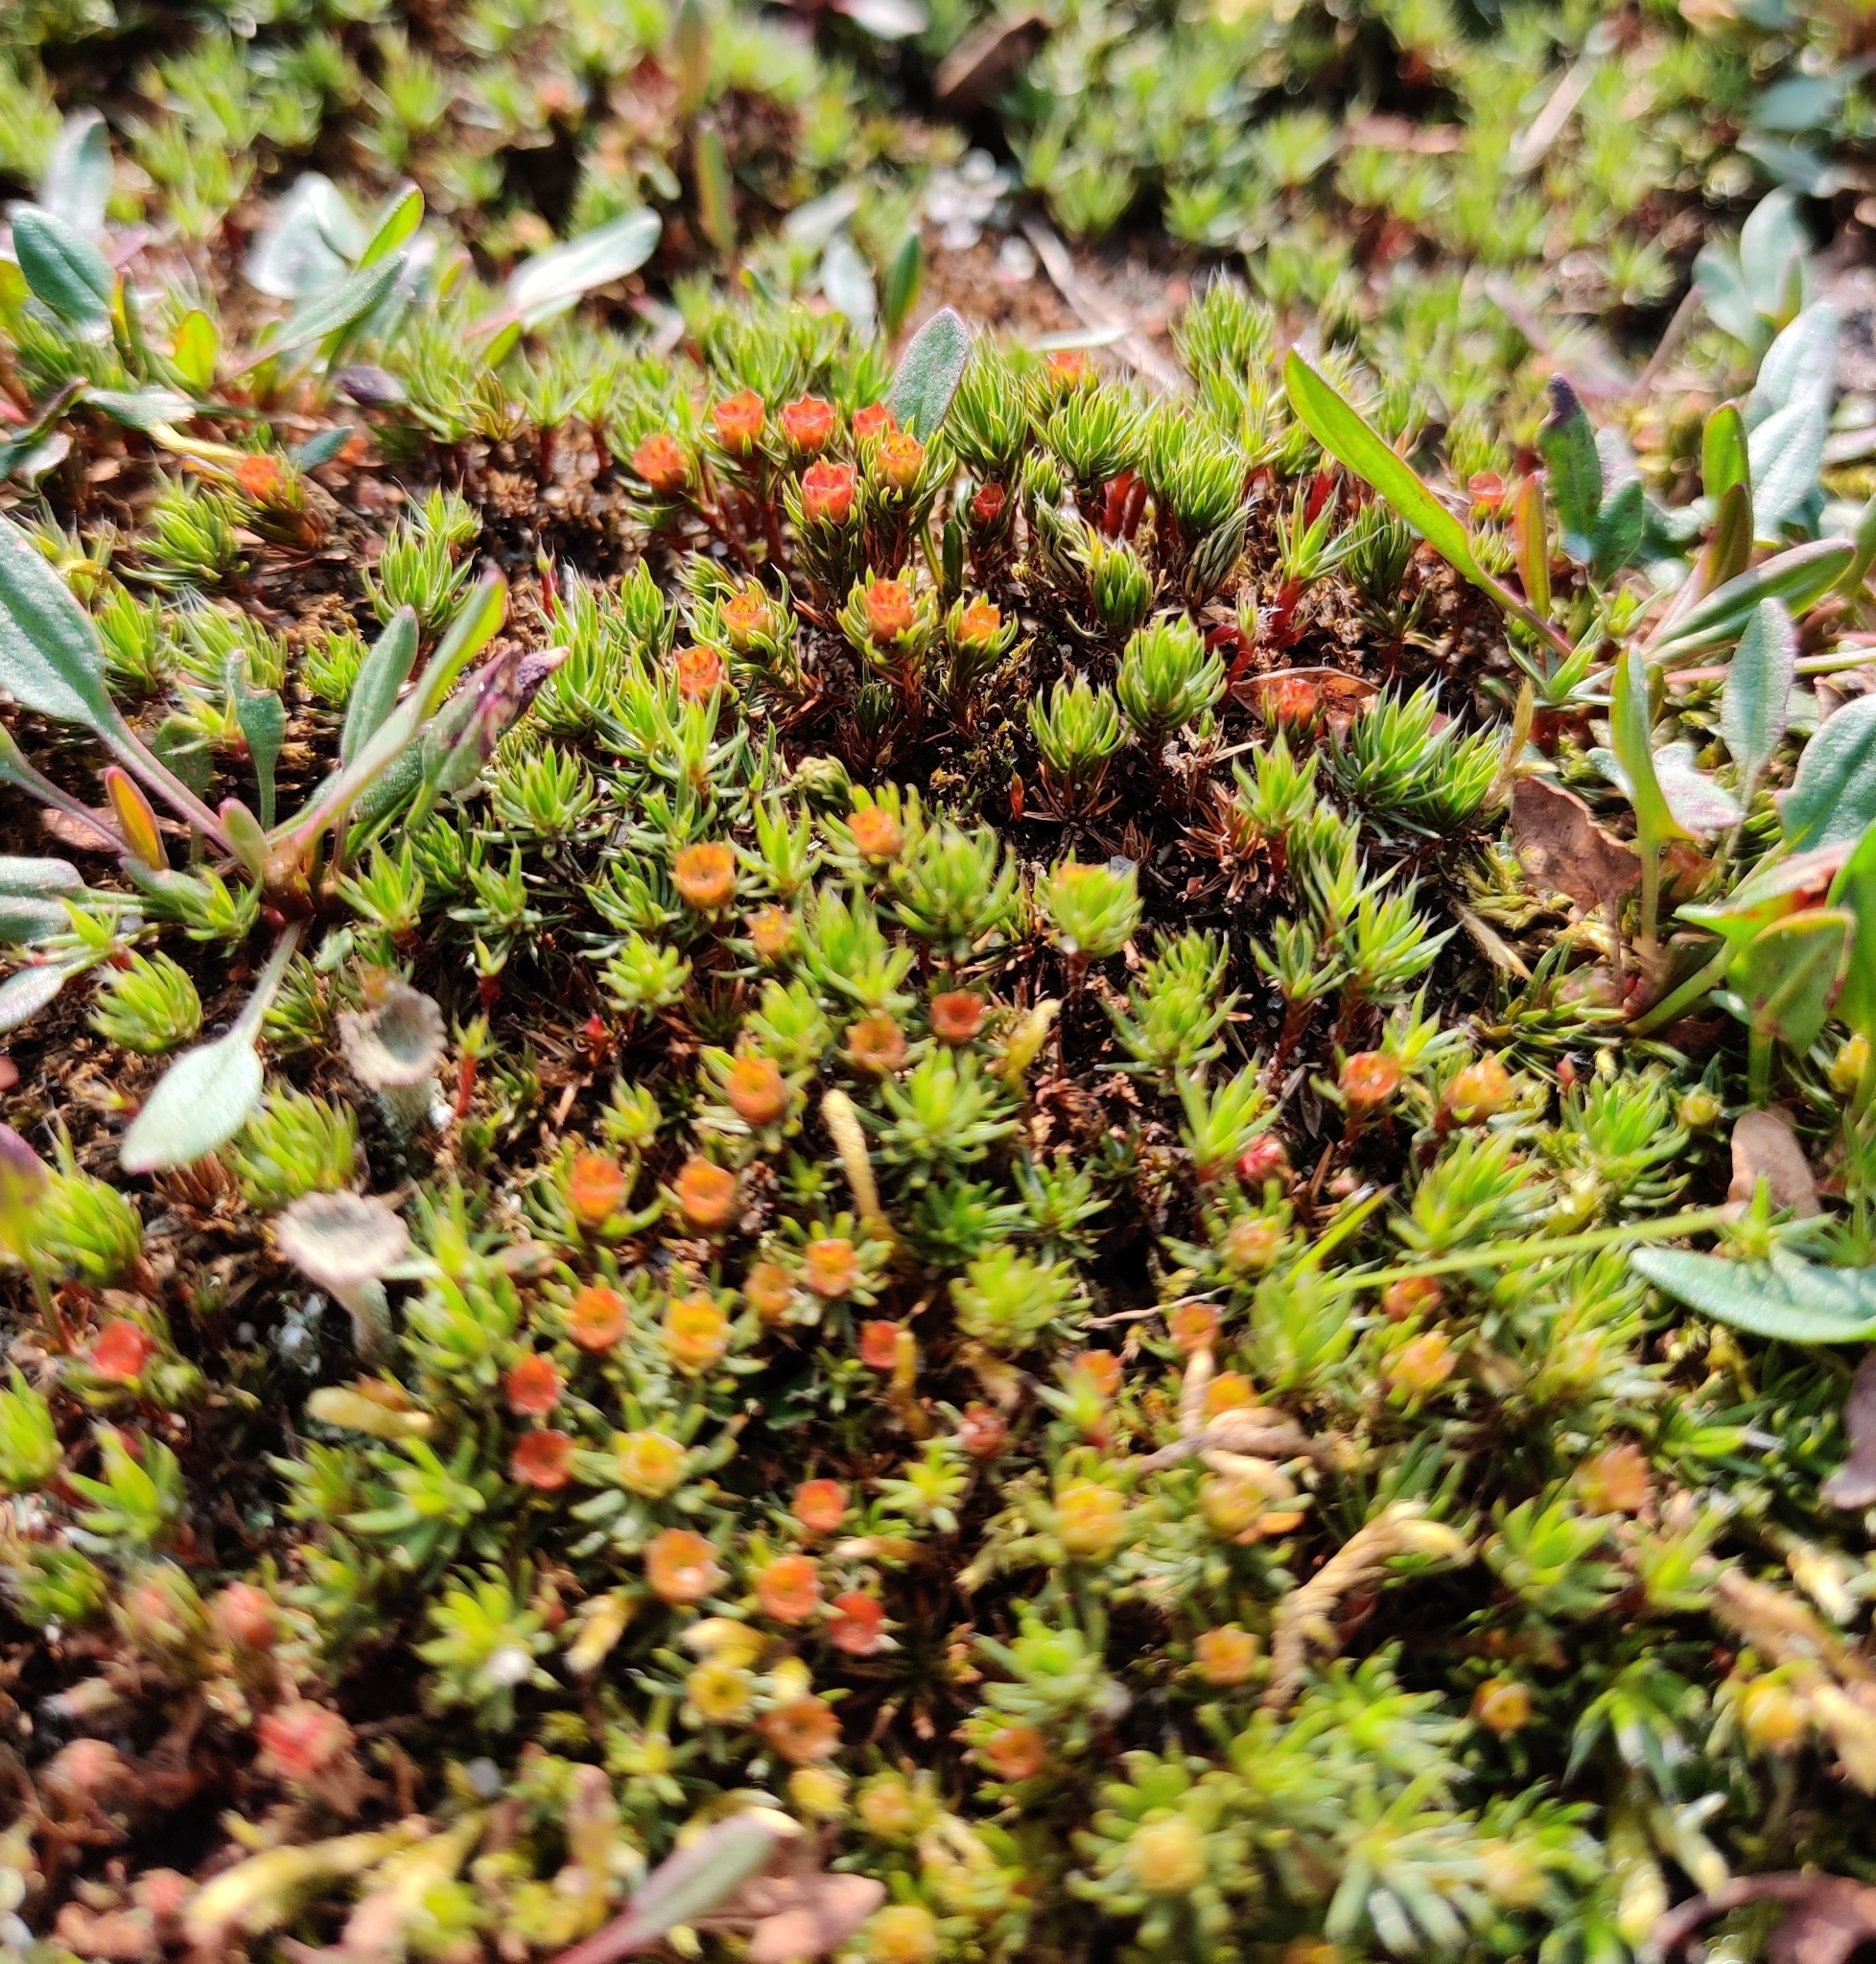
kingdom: Plantae
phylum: Bryophyta
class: Polytrichopsida
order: Polytrichales
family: Polytrichaceae
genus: Polytrichum
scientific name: Polytrichum piliferum
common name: Bristly haircap
